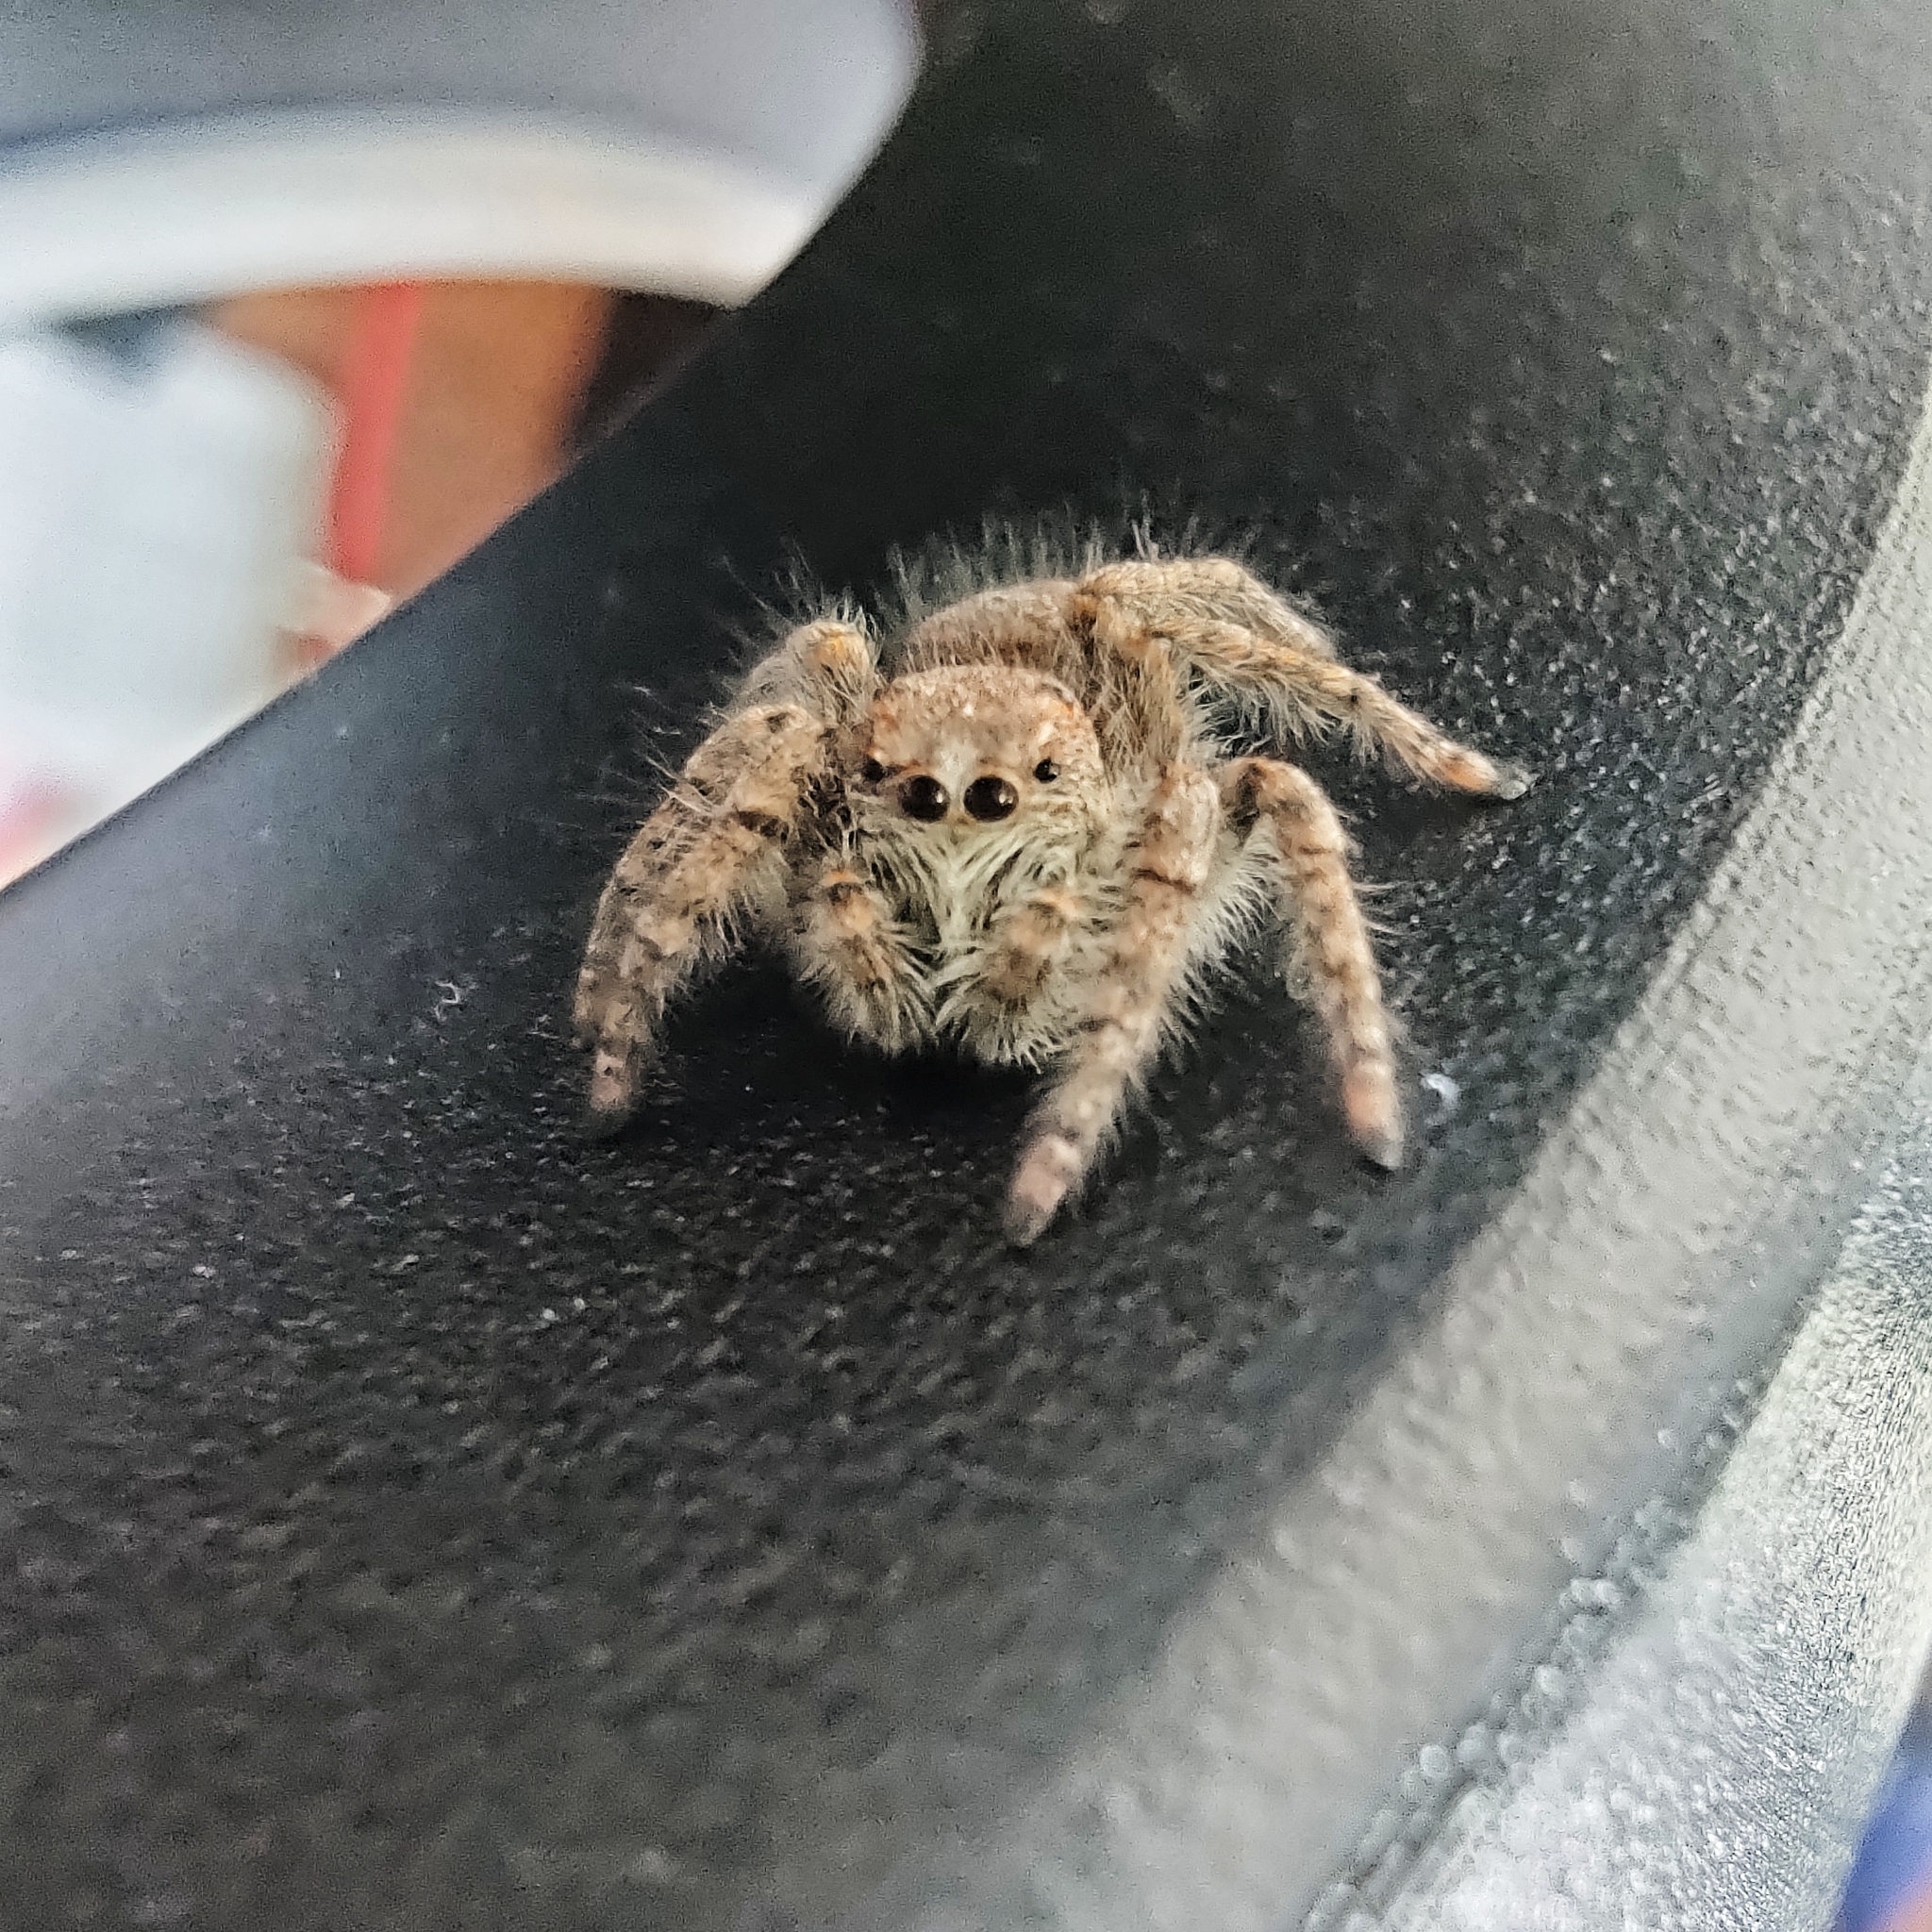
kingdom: Animalia
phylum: Arthropoda
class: Arachnida
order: Araneae
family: Salticidae
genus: Philaeus
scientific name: Philaeus chrysops
